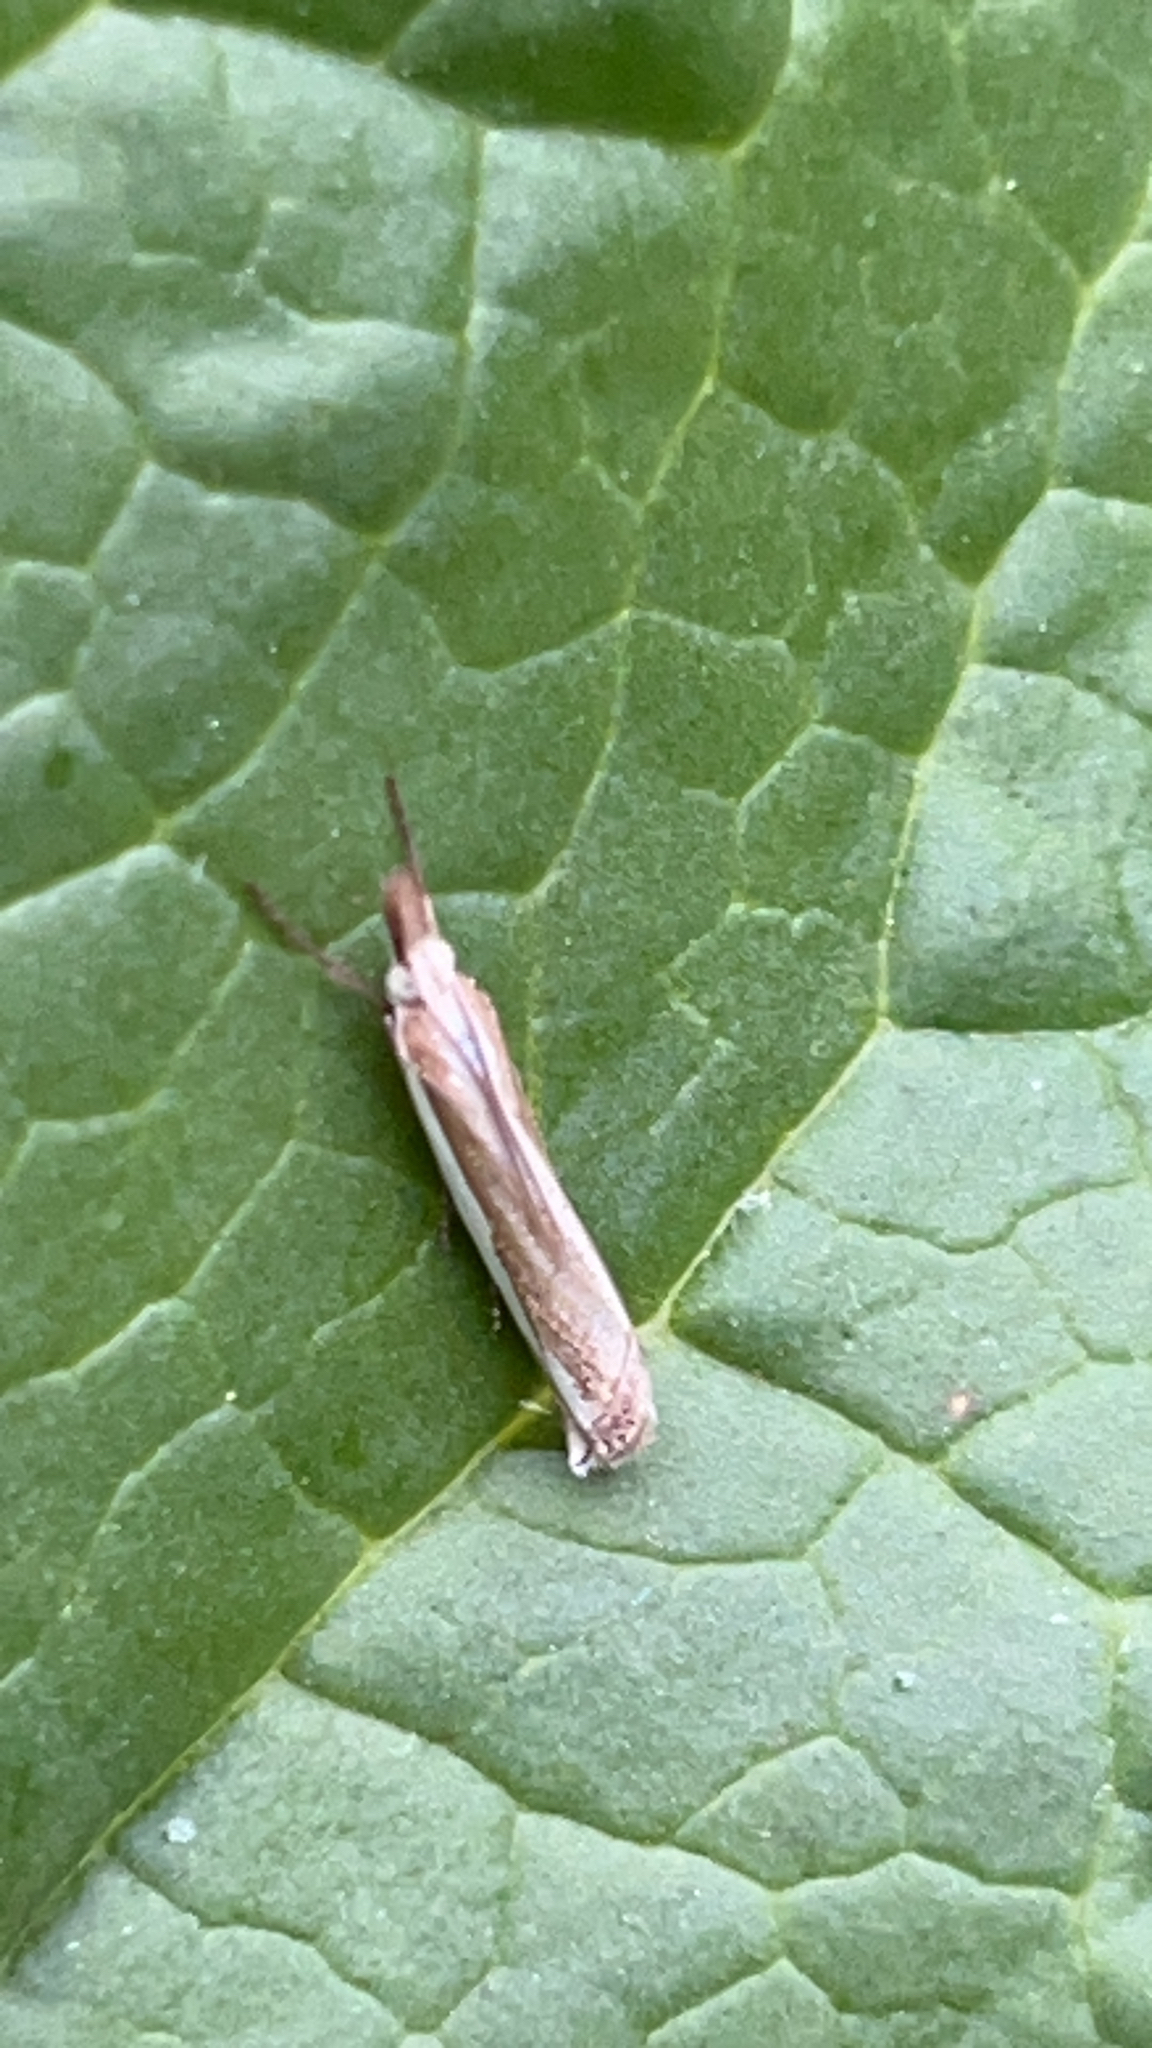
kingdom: Animalia
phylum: Arthropoda
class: Insecta
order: Lepidoptera
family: Crambidae
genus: Crambus
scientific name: Crambus pascuella
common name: Inlaid grass-veneer
